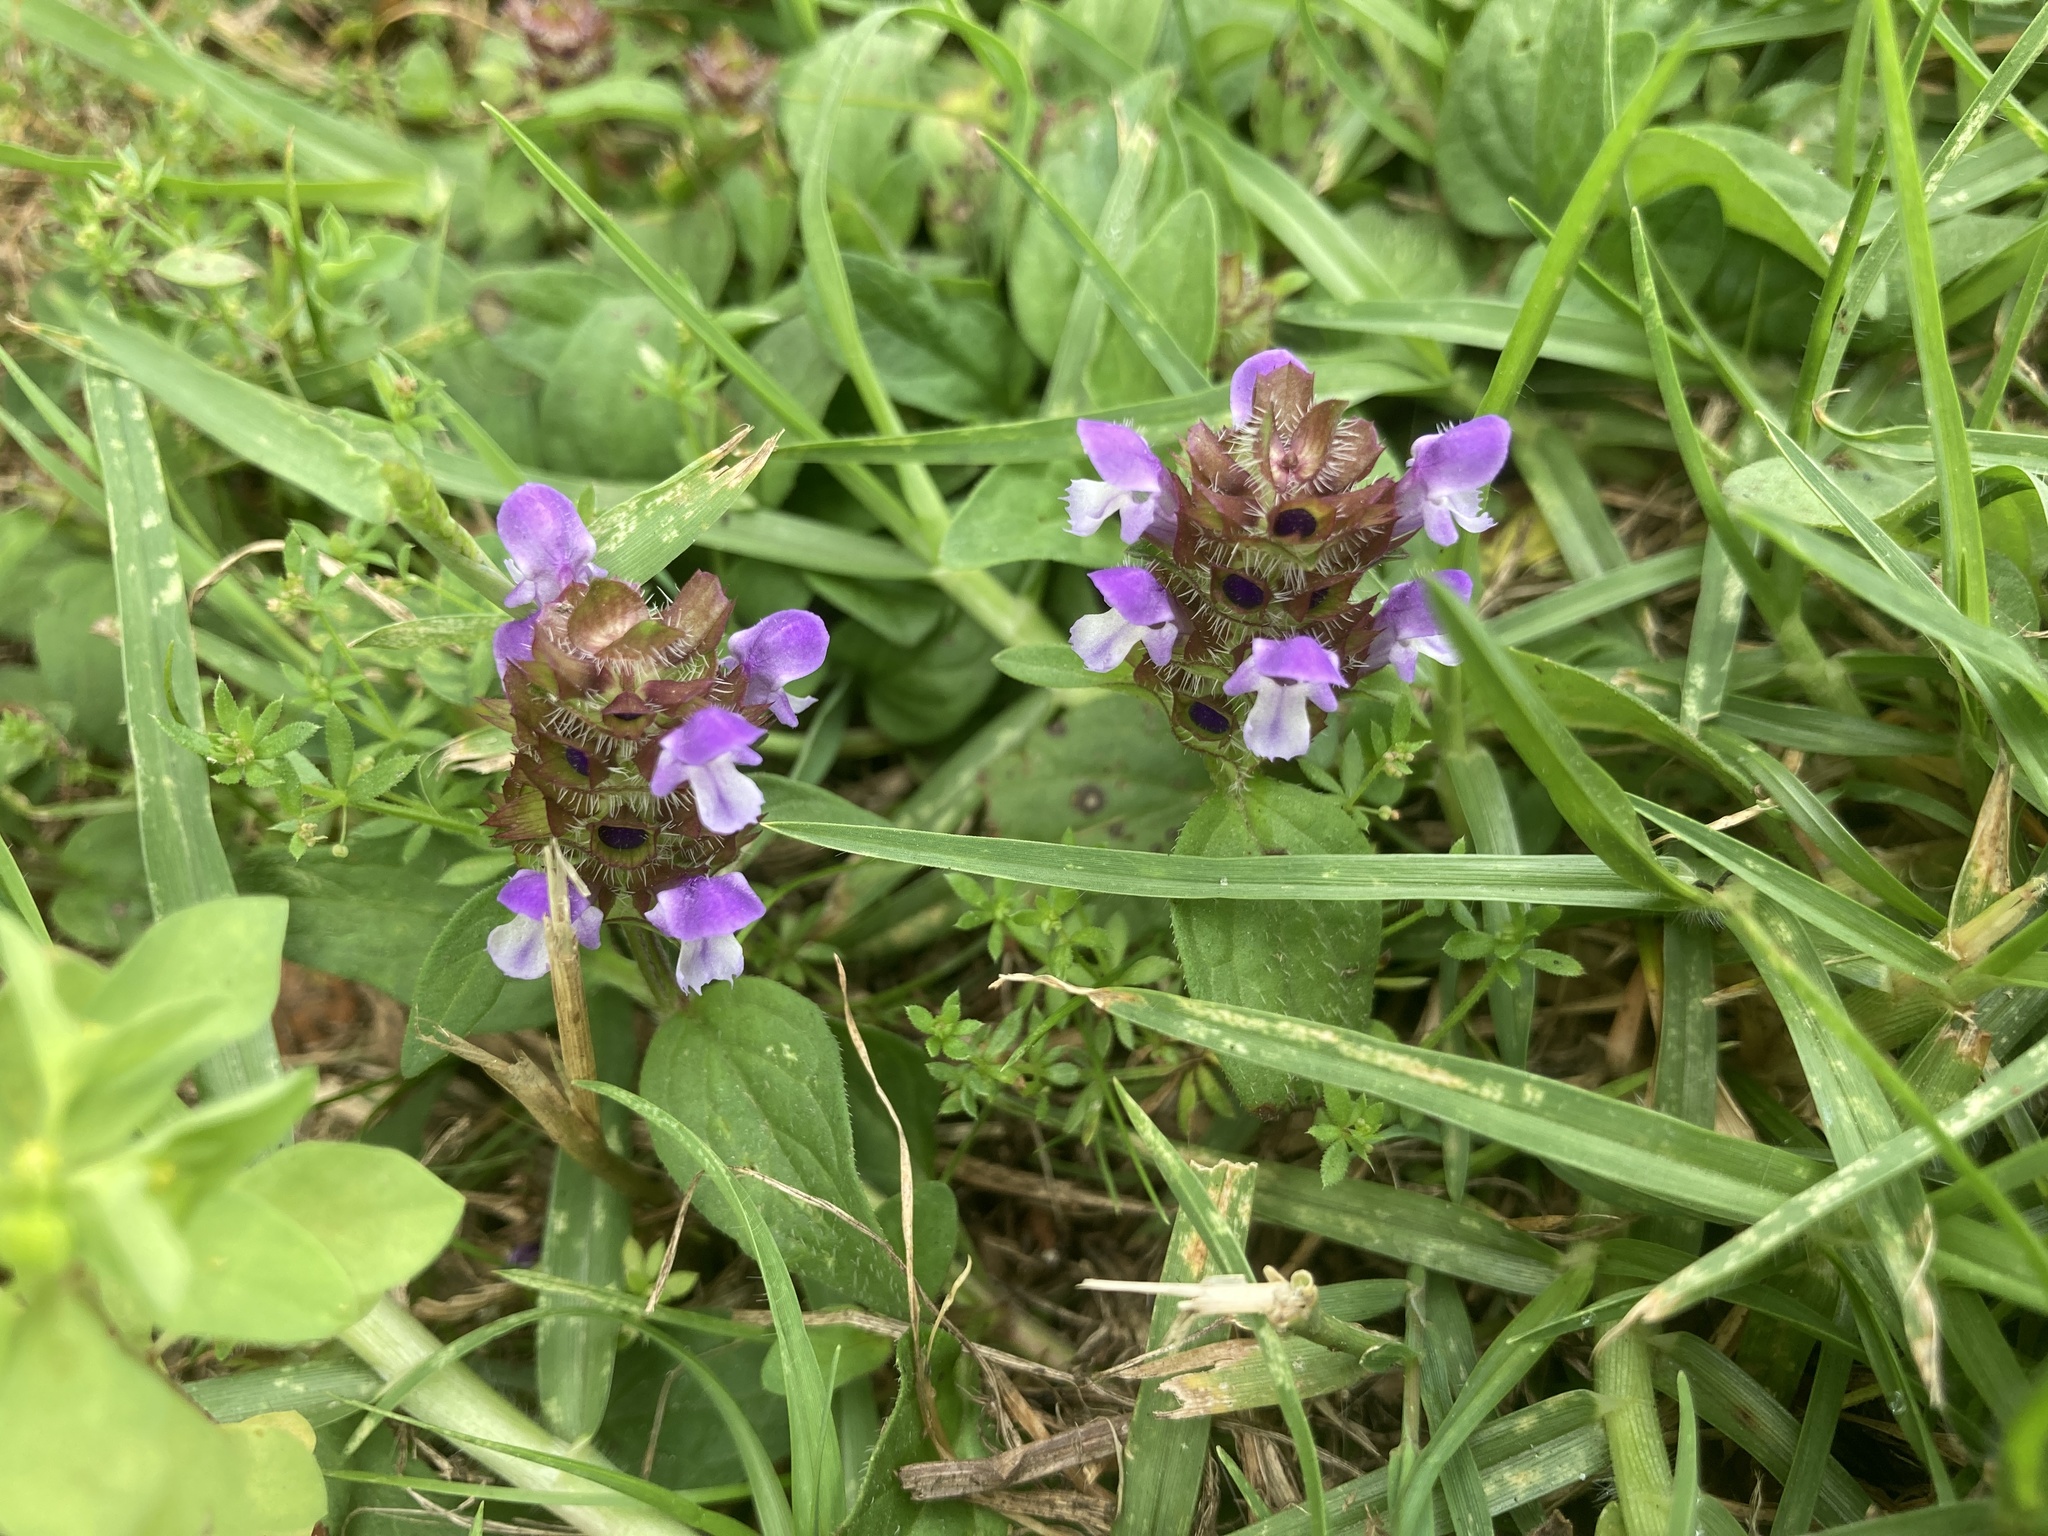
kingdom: Plantae
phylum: Tracheophyta
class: Magnoliopsida
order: Lamiales
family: Lamiaceae
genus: Prunella
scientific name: Prunella vulgaris
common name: Heal-all
